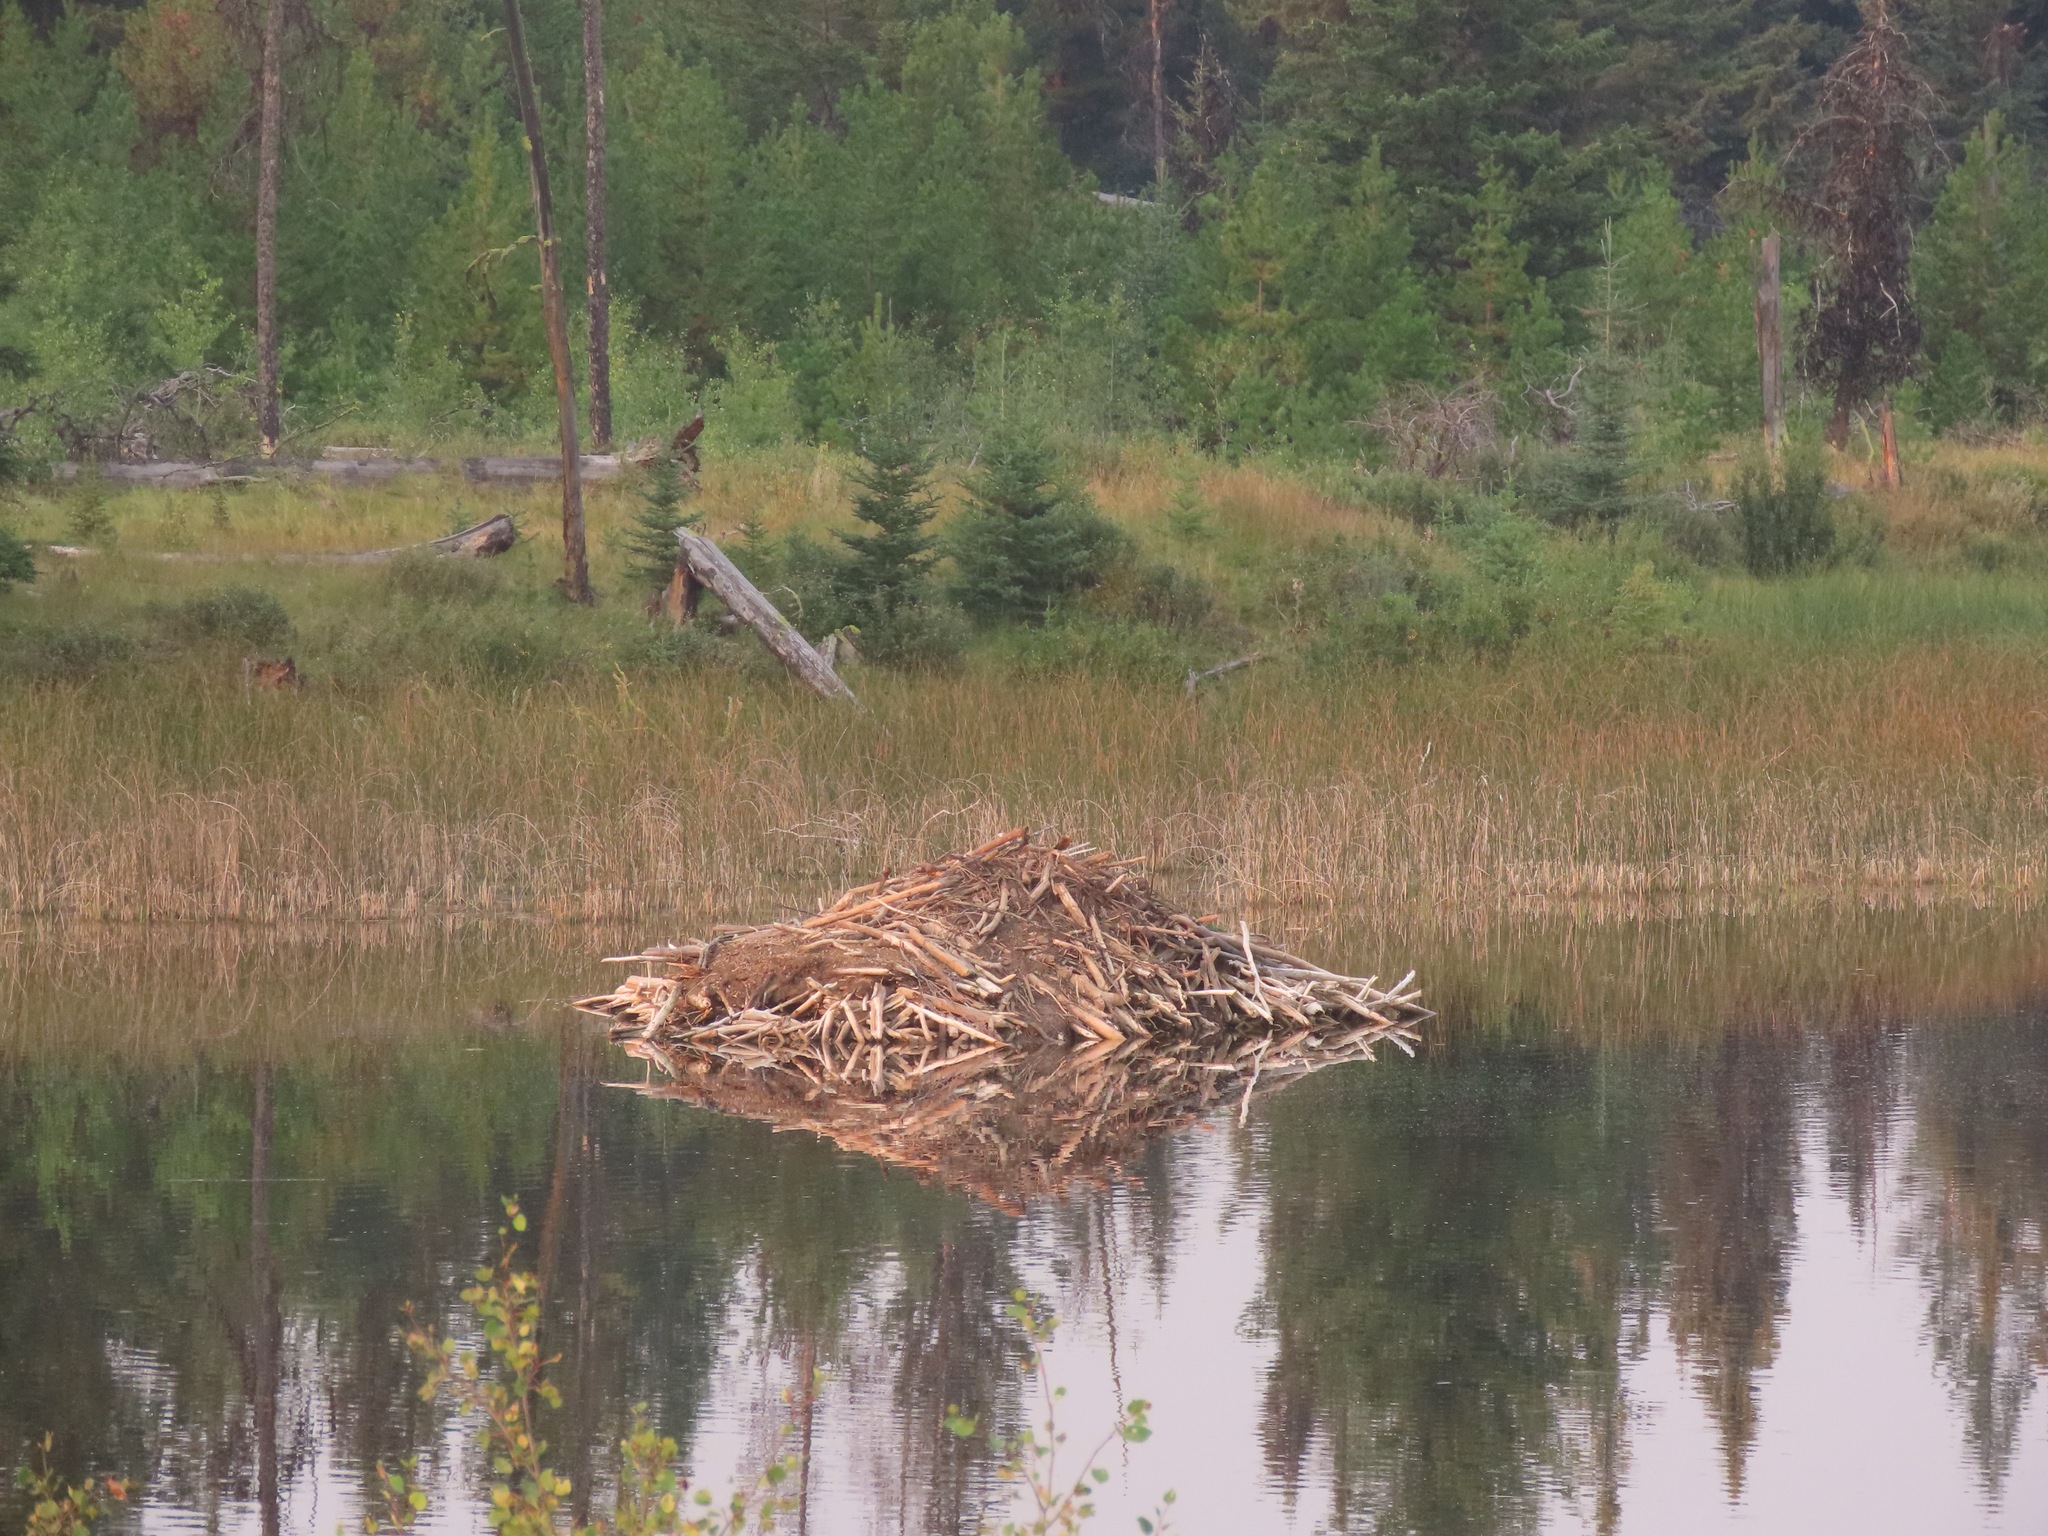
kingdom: Animalia
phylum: Chordata
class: Mammalia
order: Rodentia
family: Castoridae
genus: Castor
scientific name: Castor canadensis
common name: American beaver
